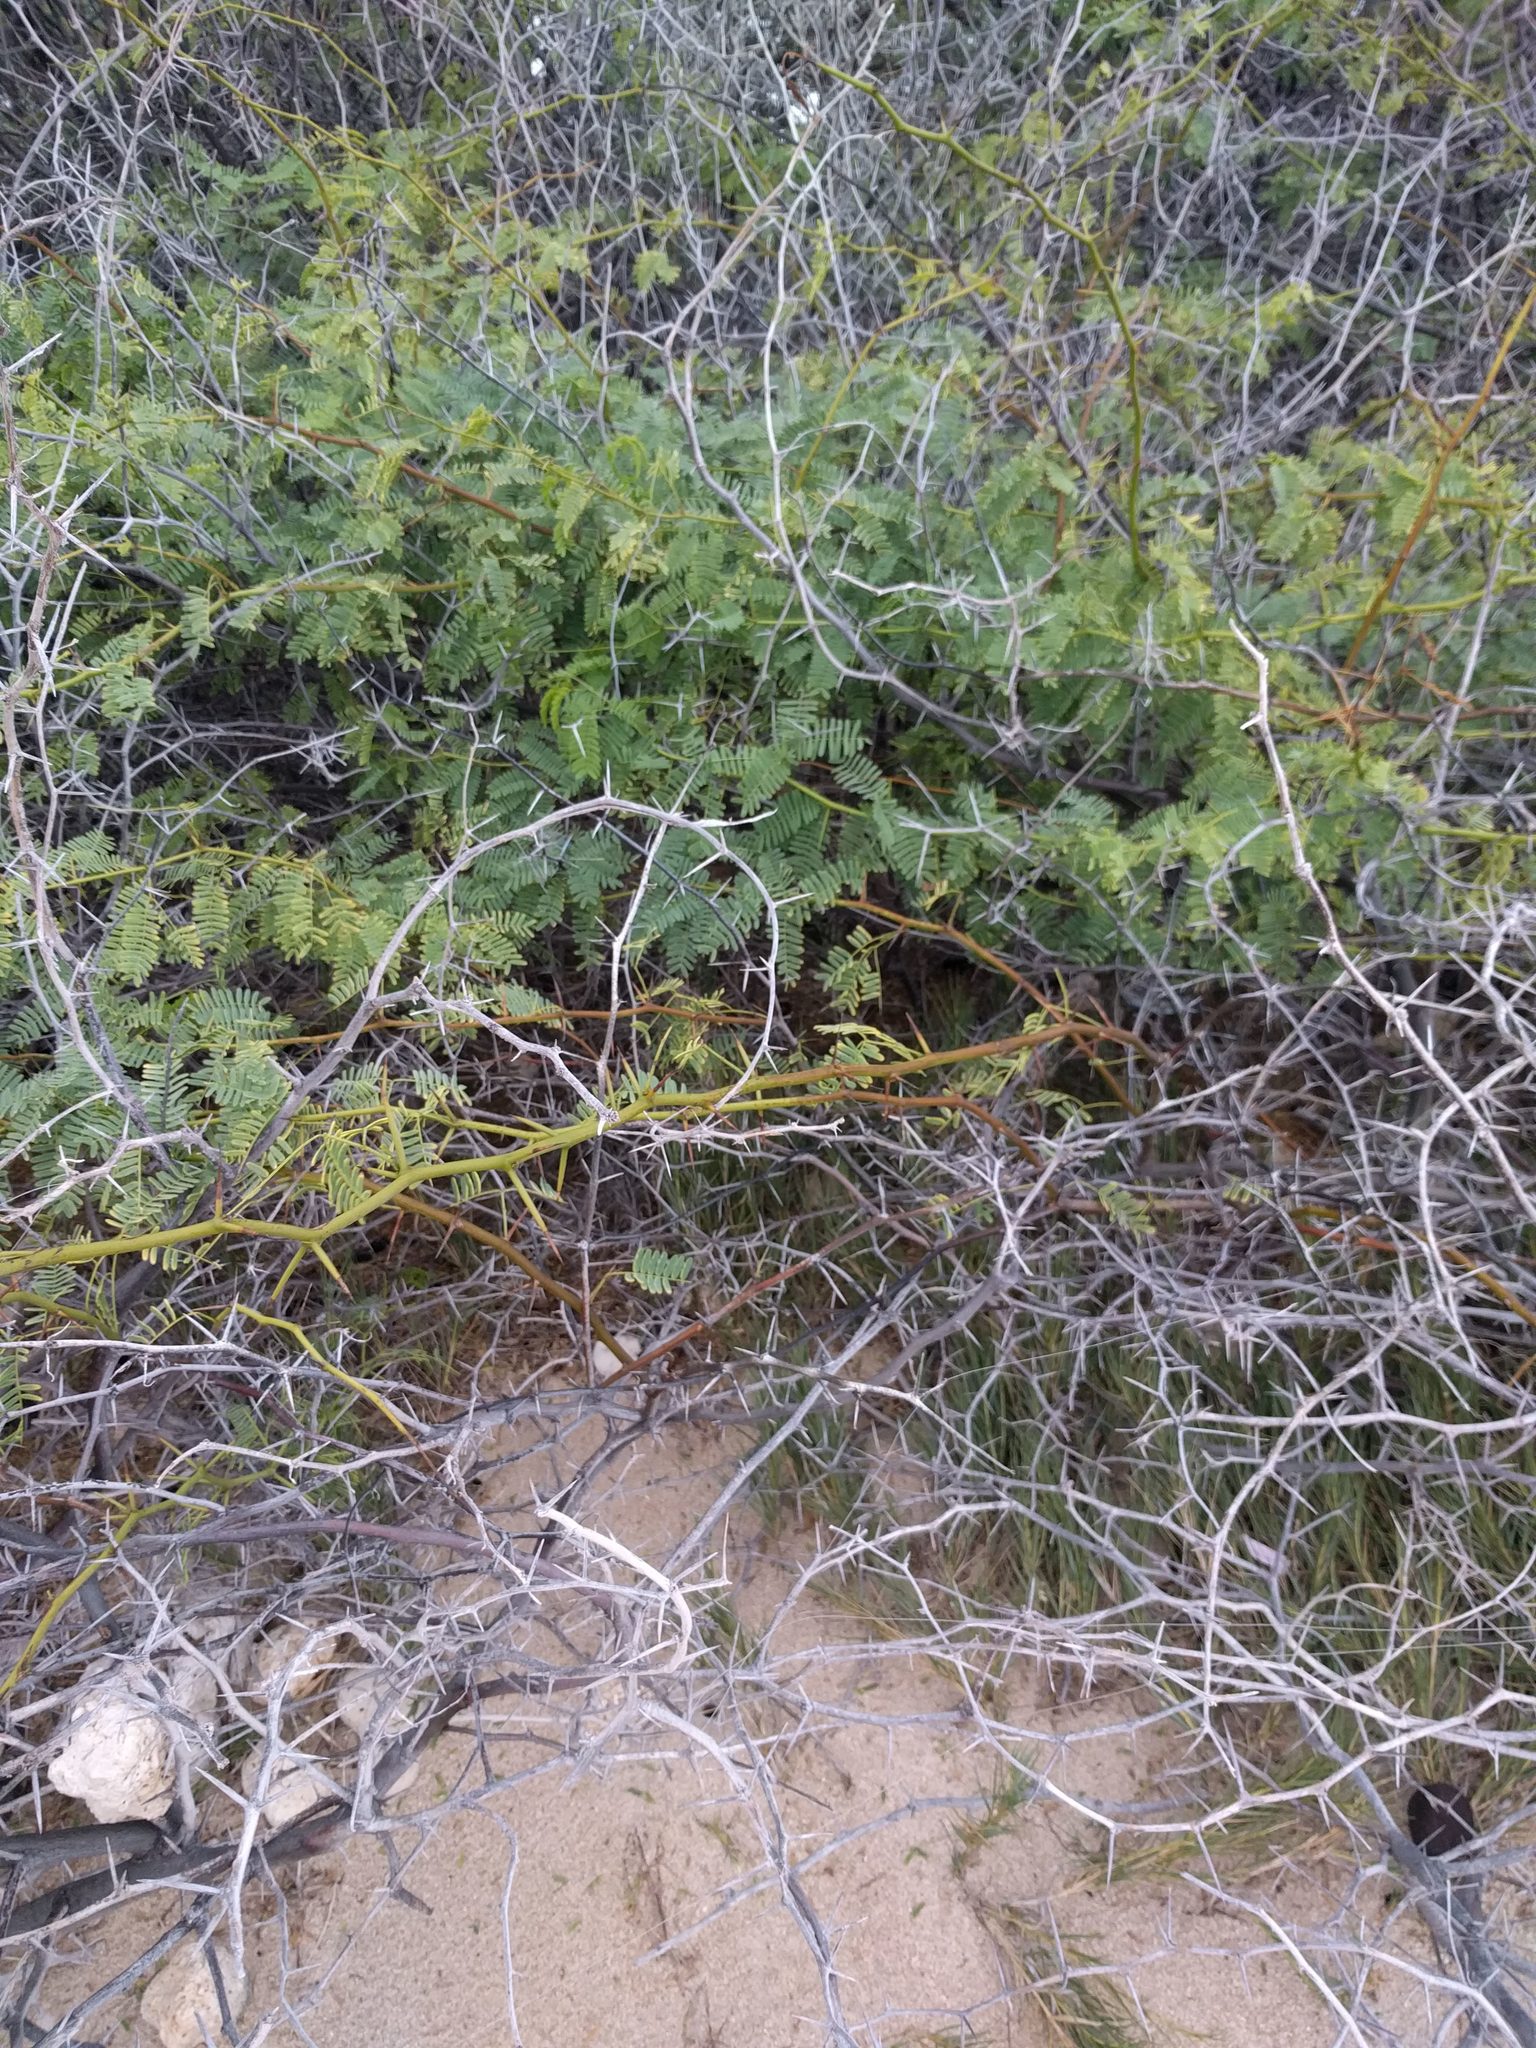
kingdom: Plantae
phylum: Tracheophyta
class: Magnoliopsida
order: Fabales
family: Fabaceae
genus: Prosopis
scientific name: Prosopis juliflora
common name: Mesquite
